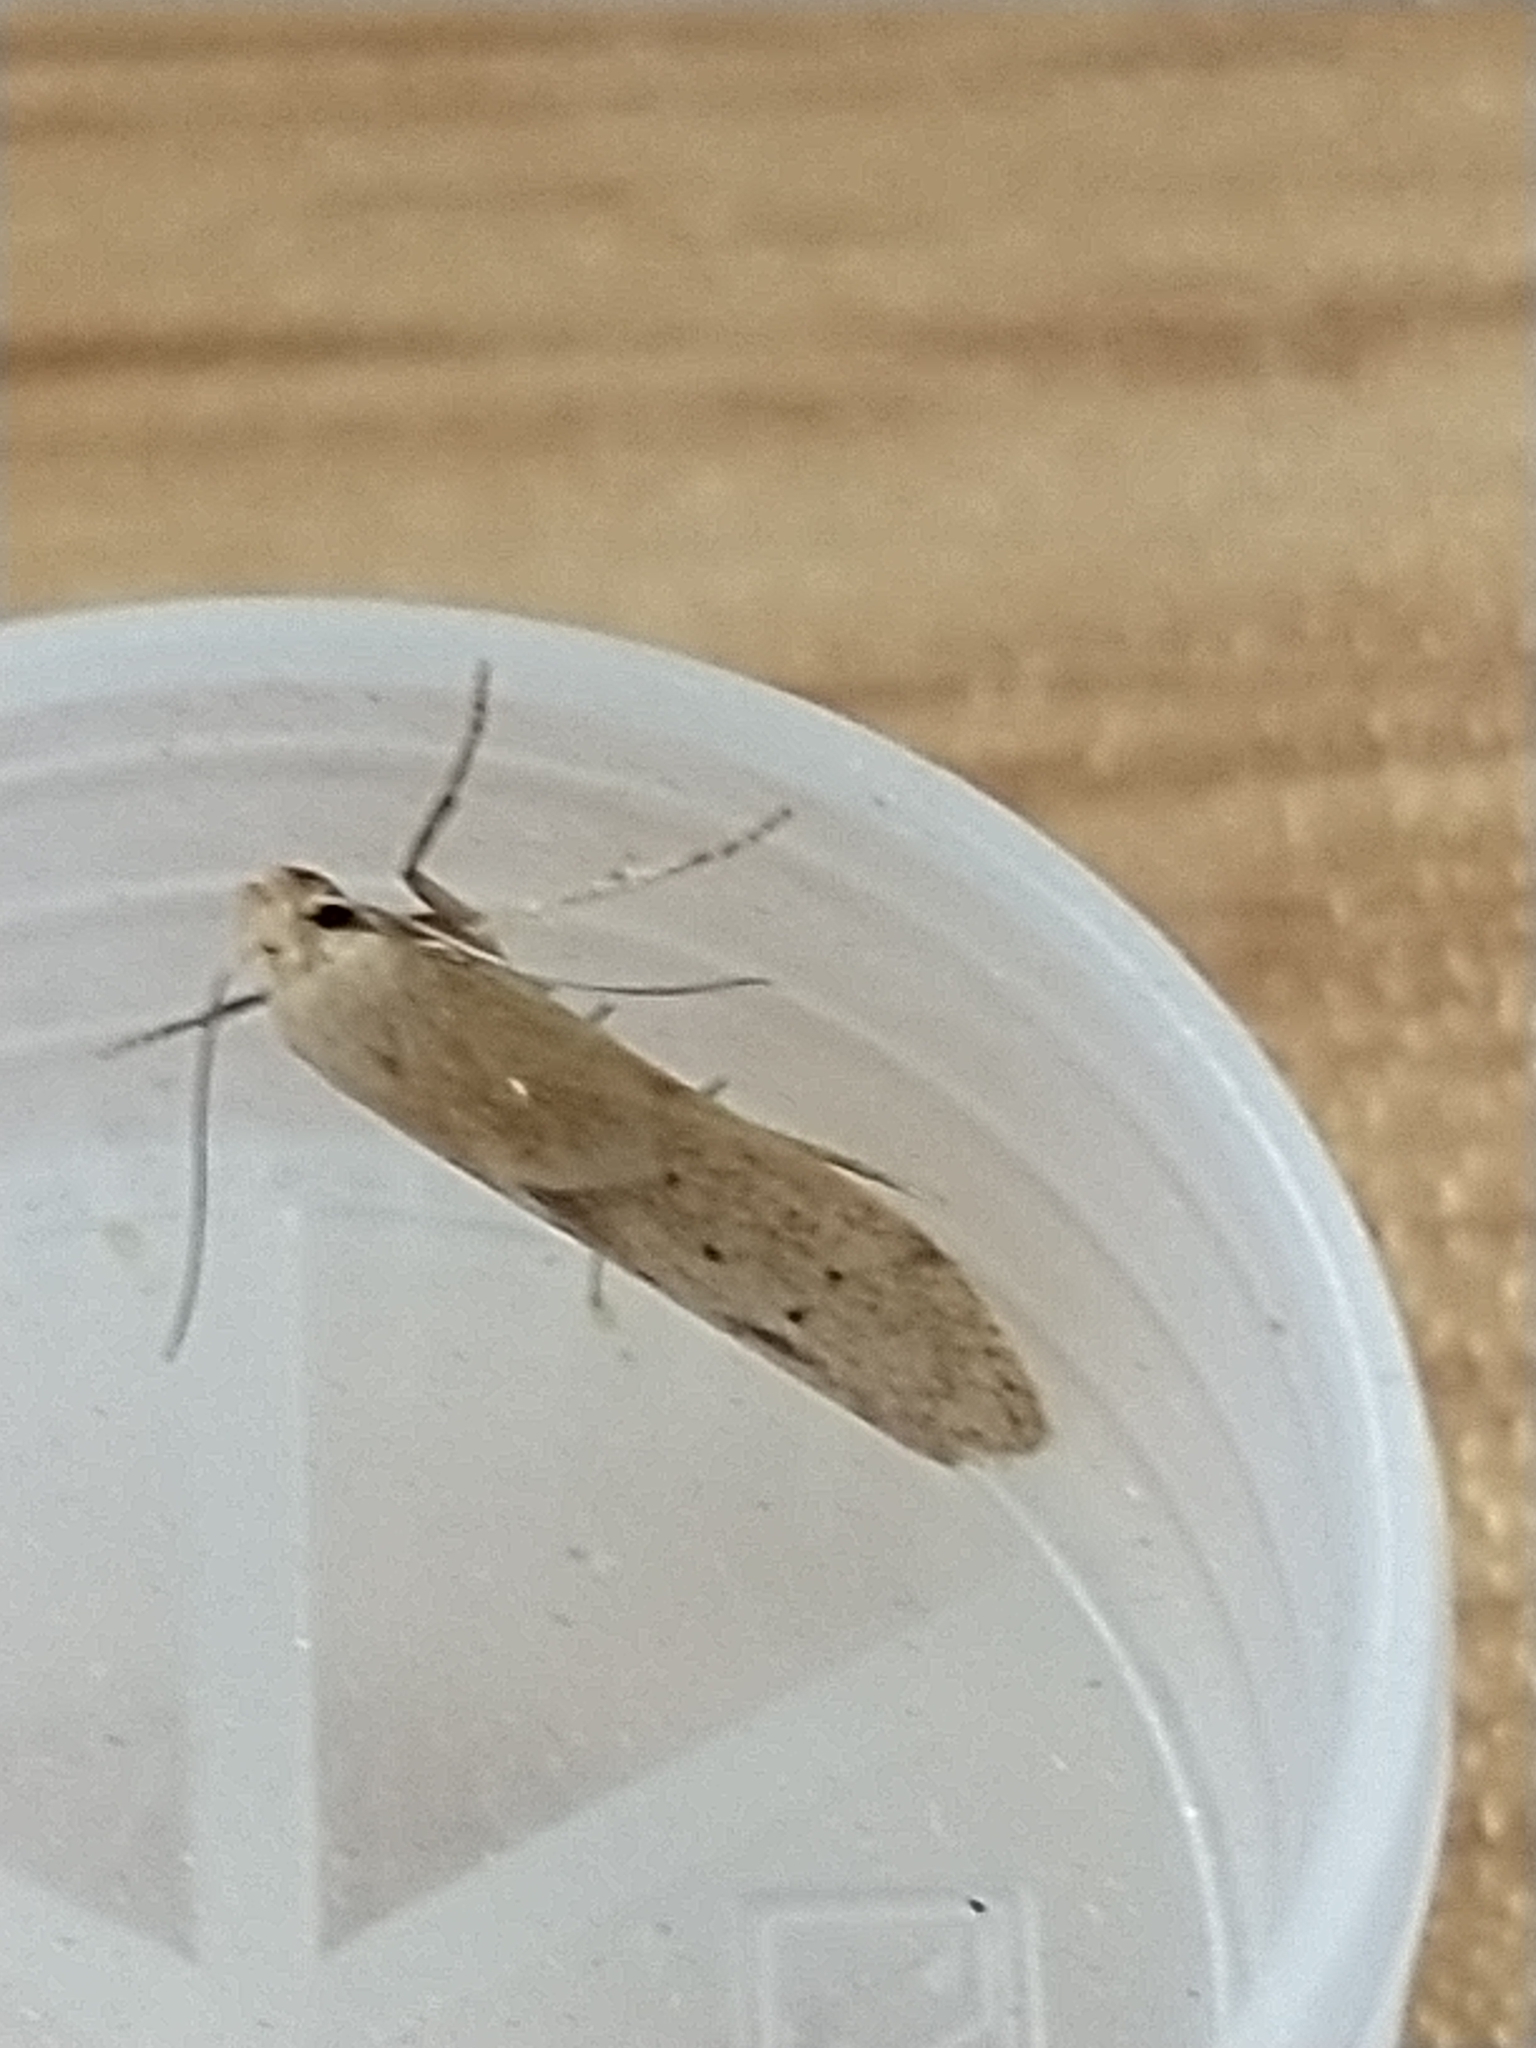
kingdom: Animalia
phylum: Arthropoda
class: Insecta
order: Lepidoptera
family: Blastobasidae
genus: Blastobasis
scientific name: Blastobasis lacticolella
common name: London dowd
